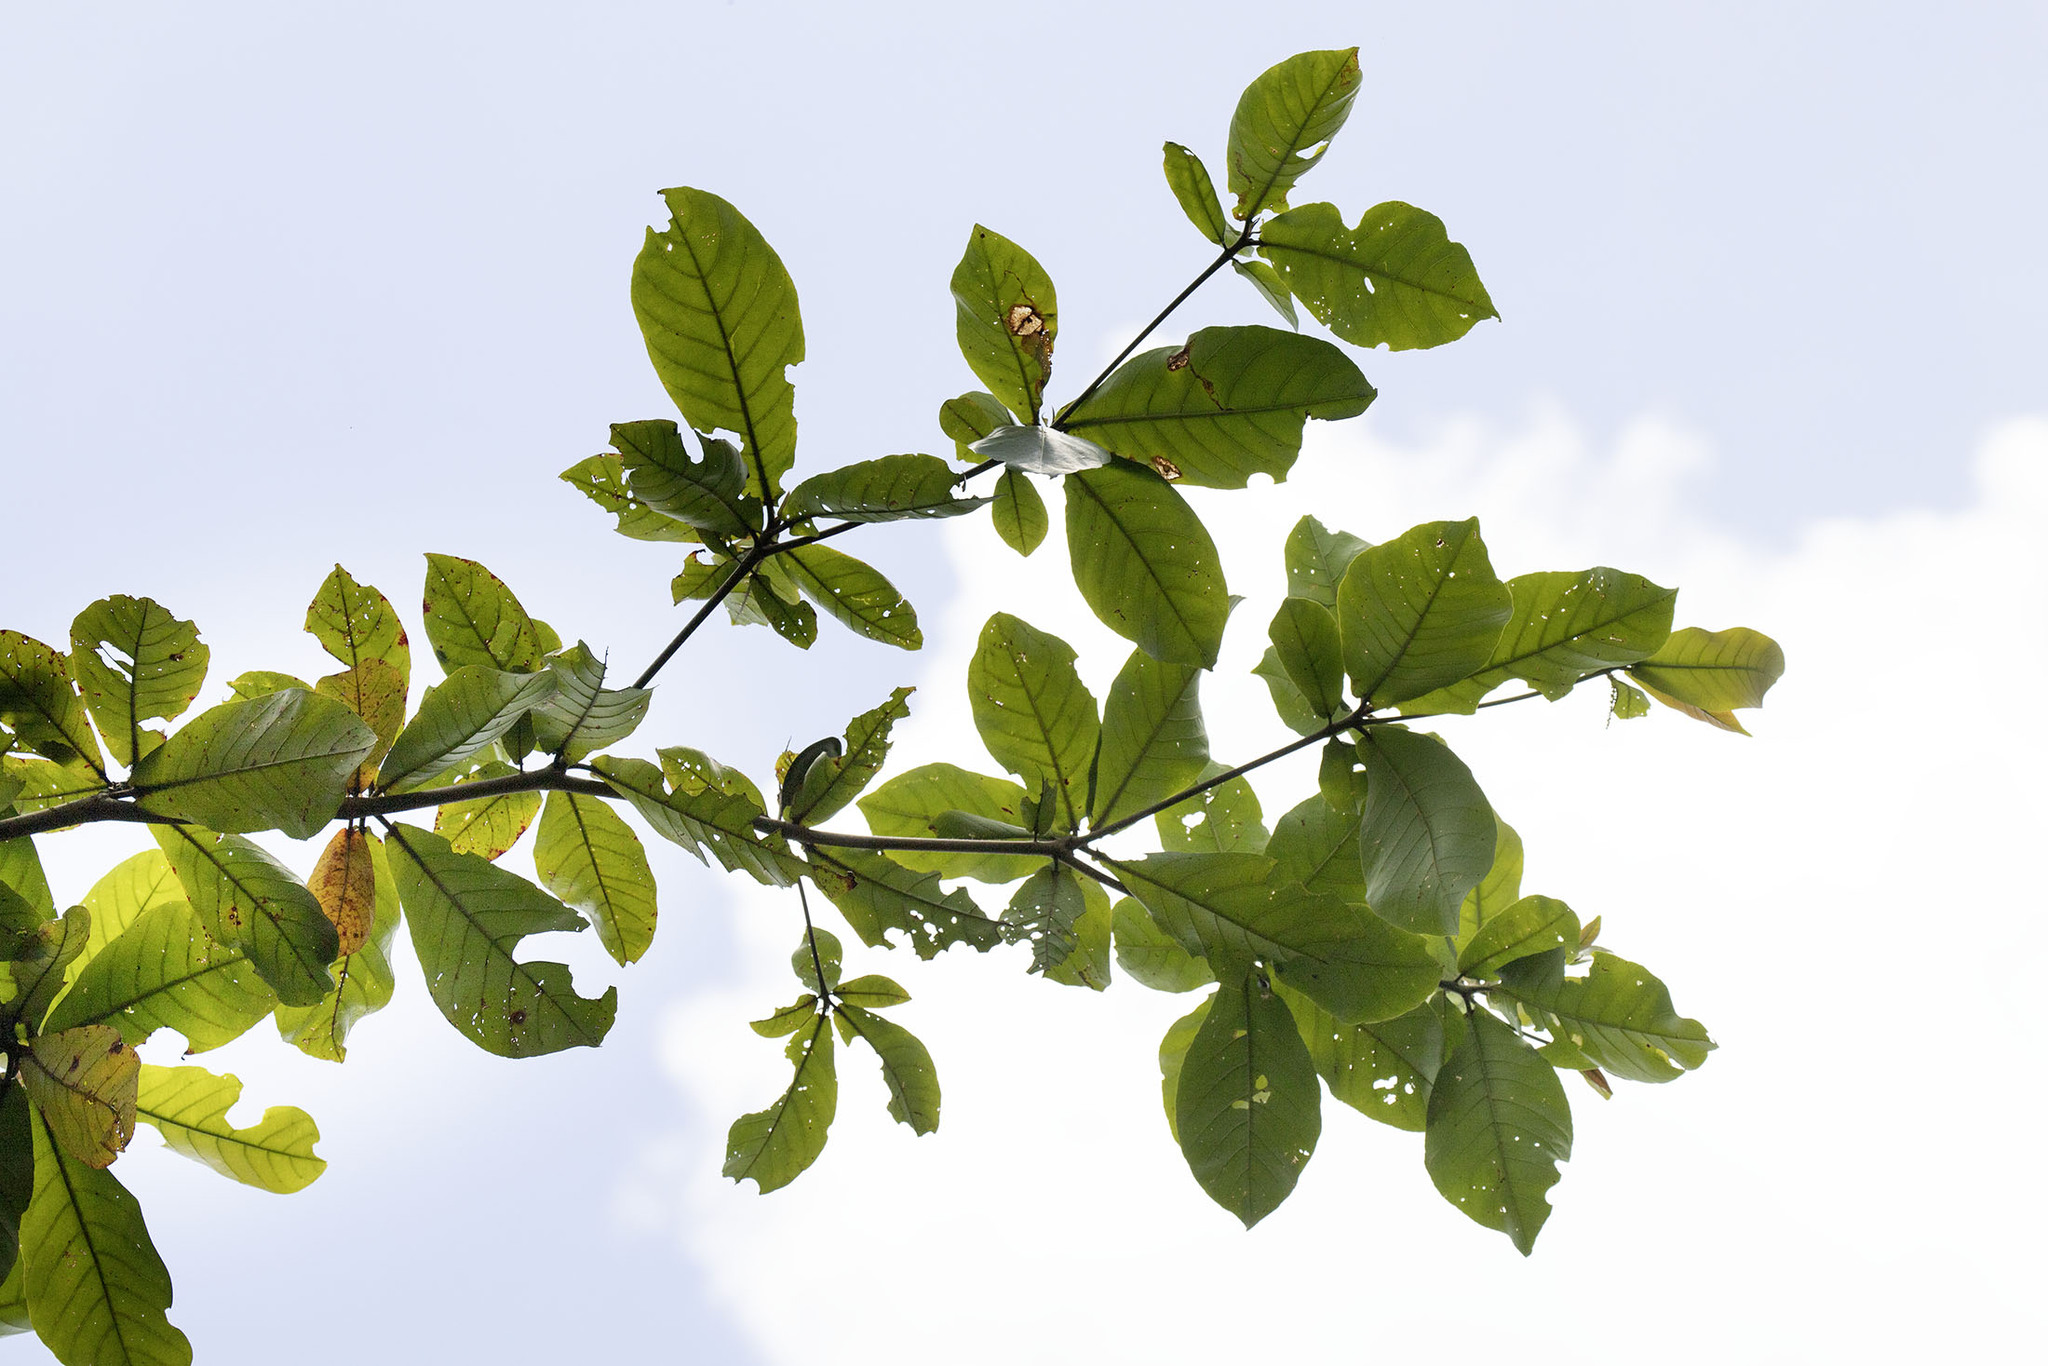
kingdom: Plantae
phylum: Tracheophyta
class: Magnoliopsida
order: Myrtales
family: Combretaceae
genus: Terminalia
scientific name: Terminalia catappa
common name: Tropical almond
